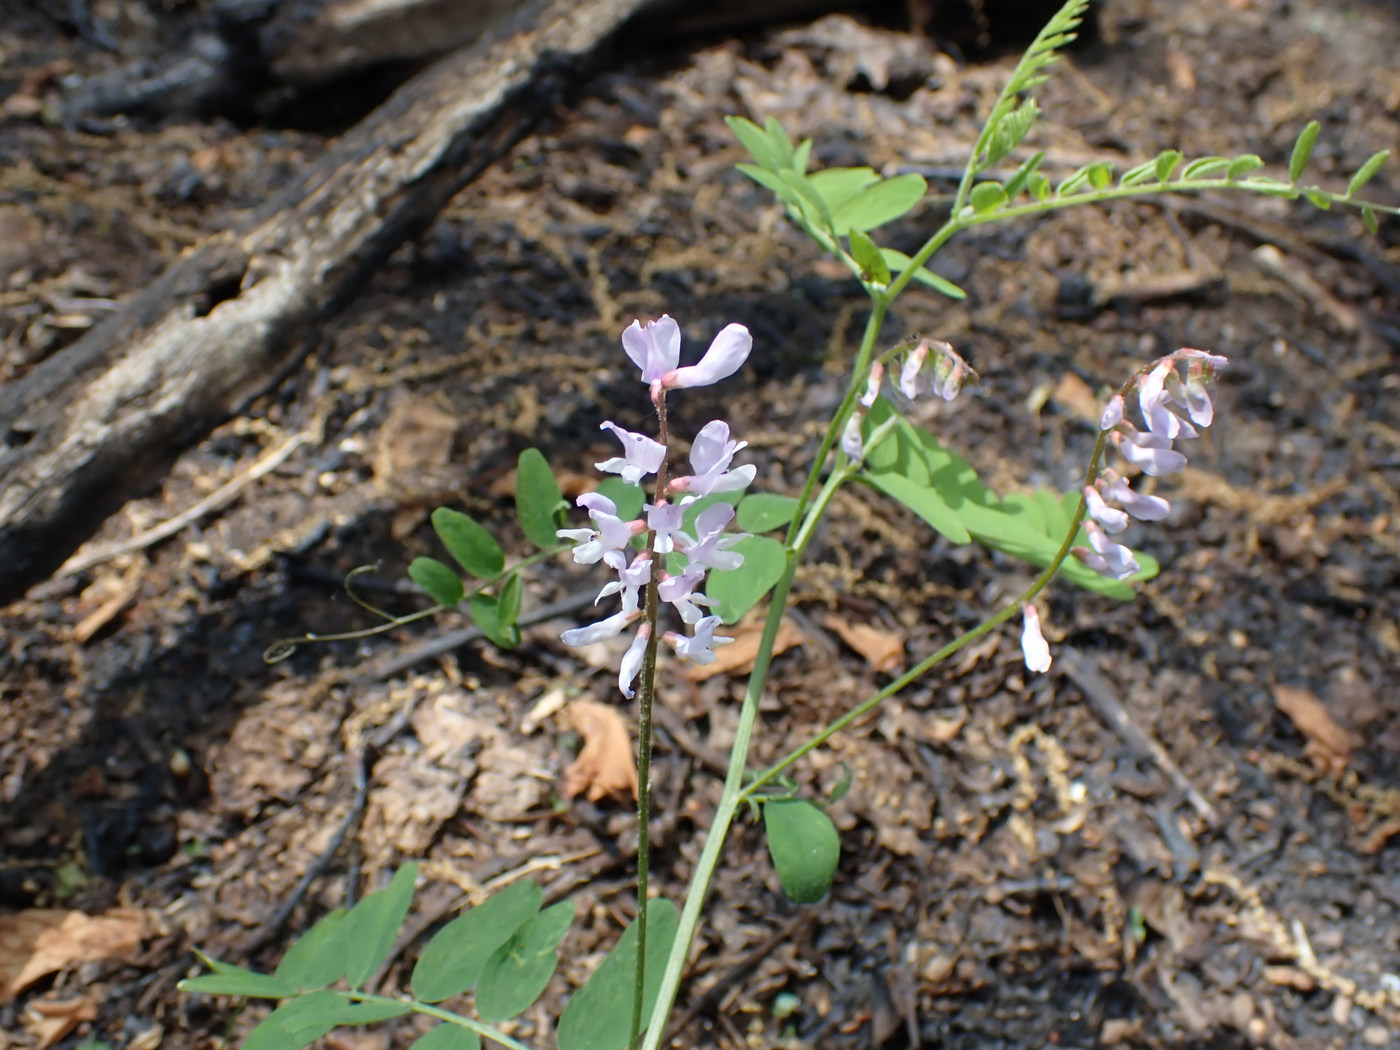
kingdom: Plantae
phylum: Tracheophyta
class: Magnoliopsida
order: Fabales
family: Fabaceae
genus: Vicia
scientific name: Vicia caroliniana
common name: Carolina vetch
